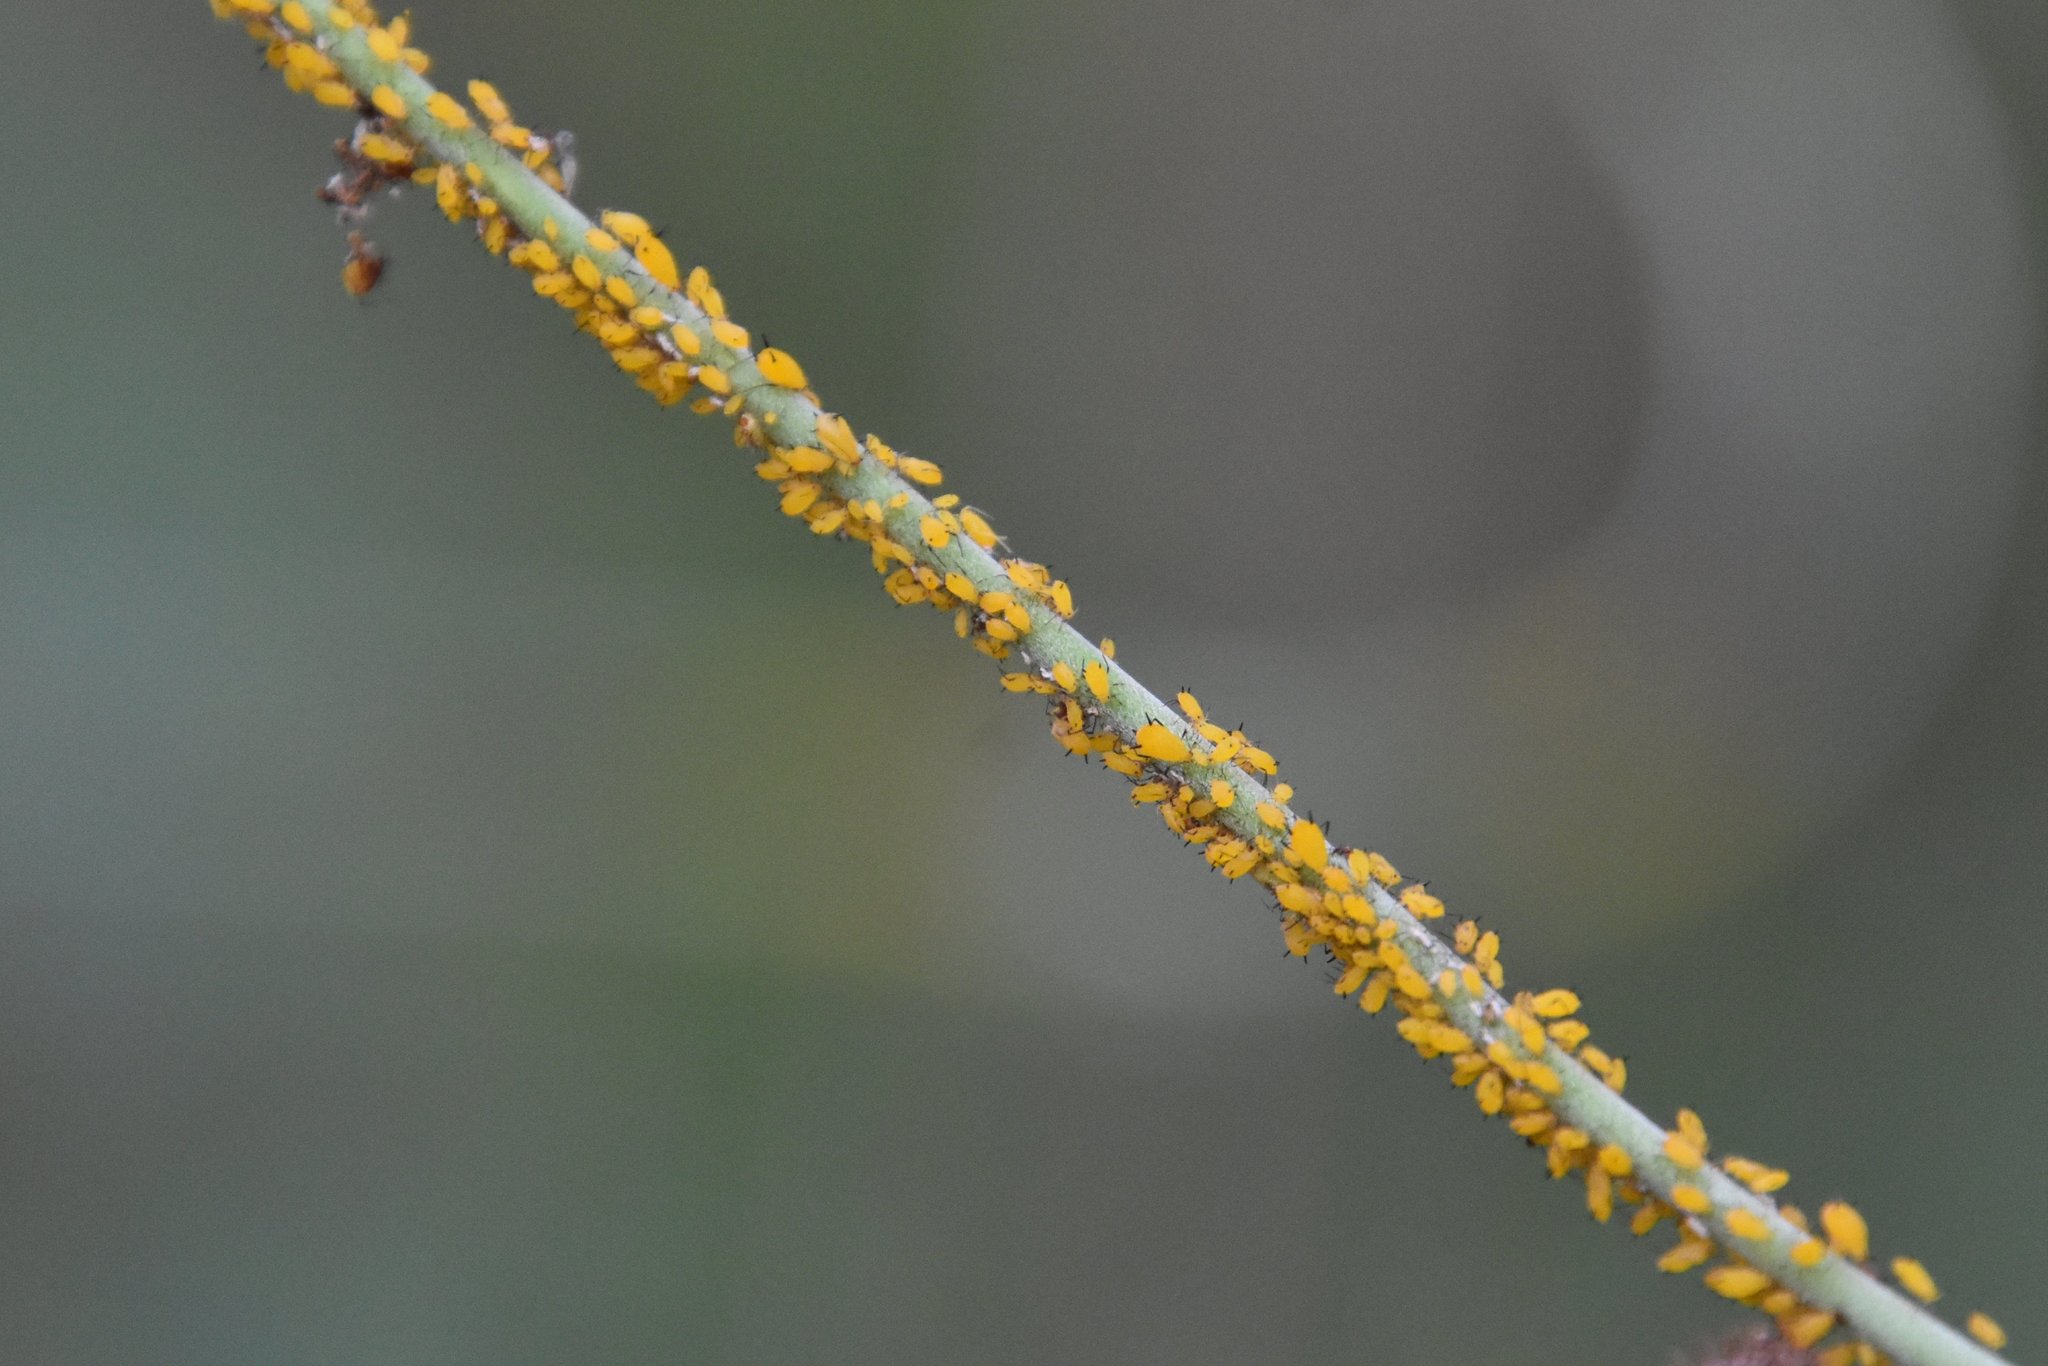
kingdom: Animalia
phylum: Arthropoda
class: Insecta
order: Hemiptera
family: Aphididae
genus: Aphis
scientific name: Aphis nerii
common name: Oleander aphid
